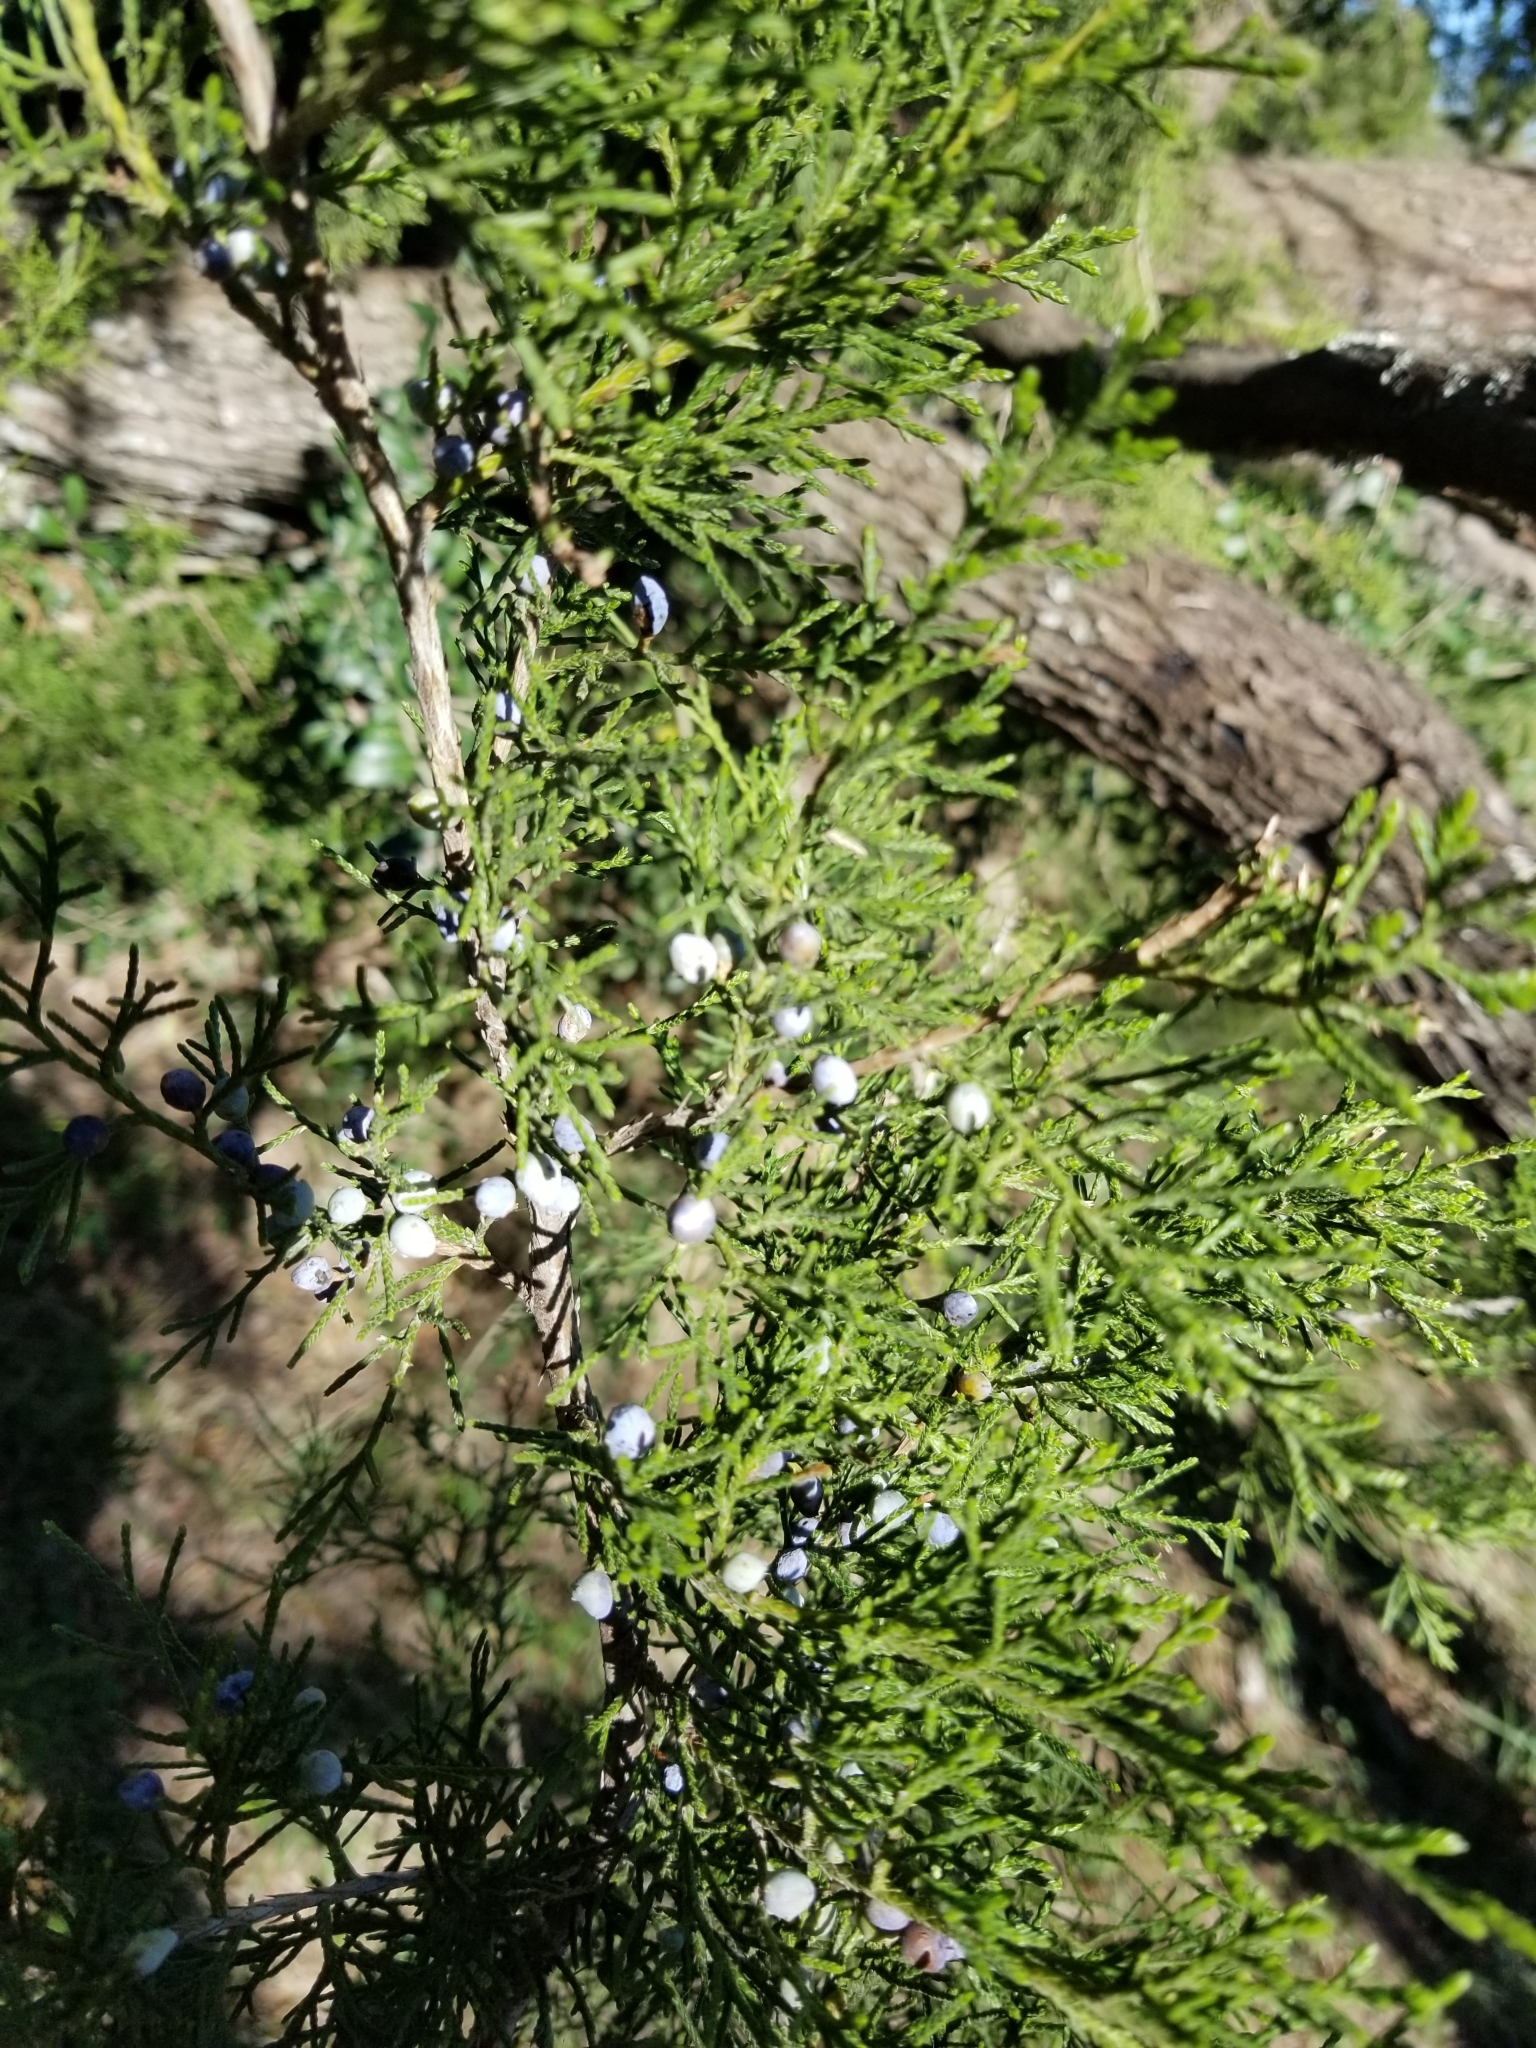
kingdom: Plantae
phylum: Tracheophyta
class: Pinopsida
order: Pinales
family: Cupressaceae
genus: Juniperus
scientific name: Juniperus virginiana
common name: Red juniper
